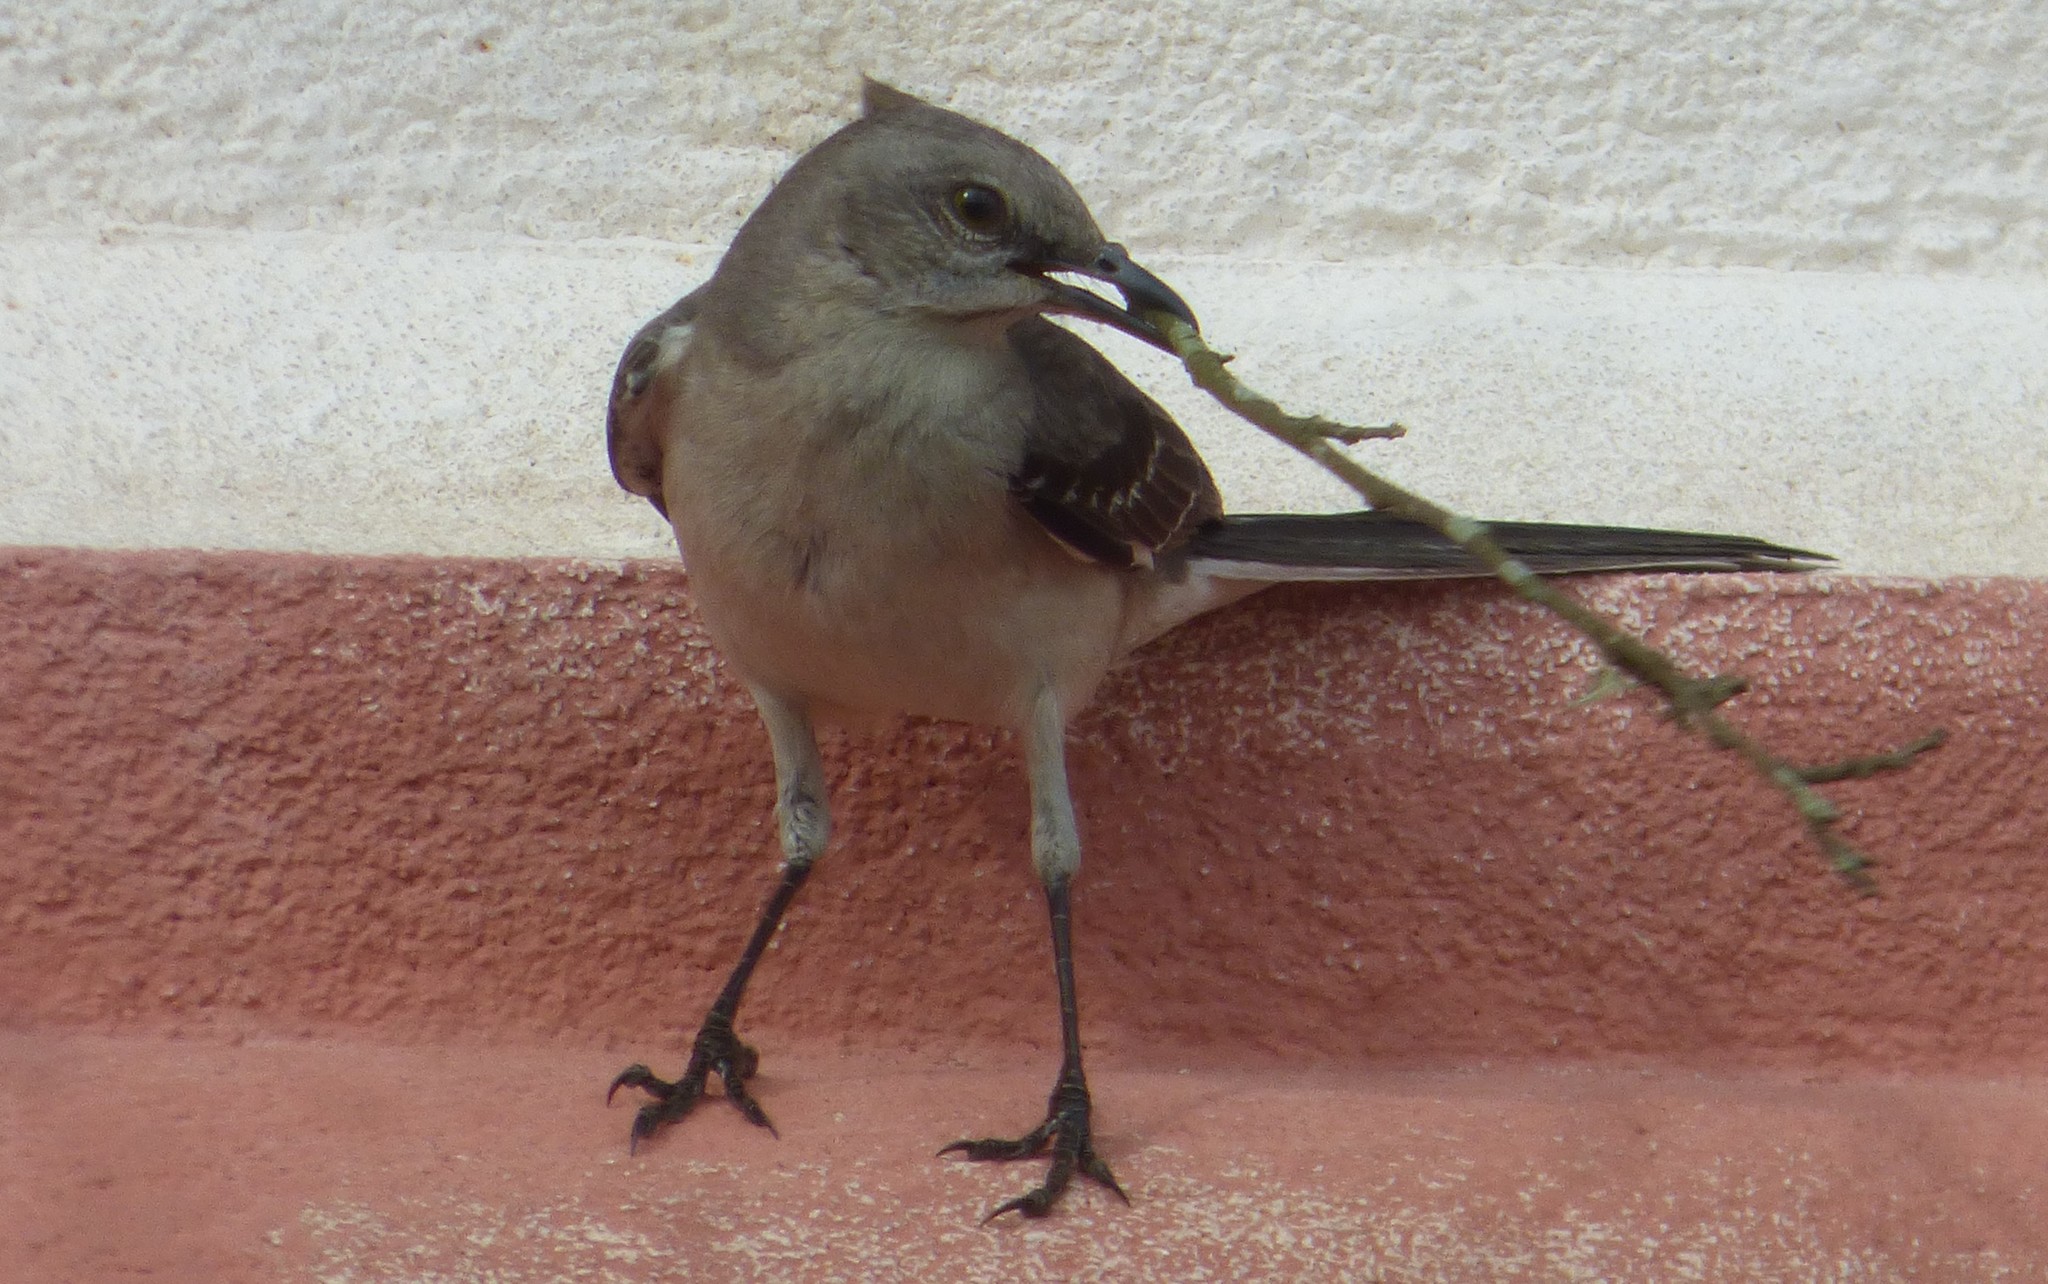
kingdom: Animalia
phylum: Chordata
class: Aves
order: Passeriformes
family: Mimidae
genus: Mimus
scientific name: Mimus polyglottos
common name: Northern mockingbird
